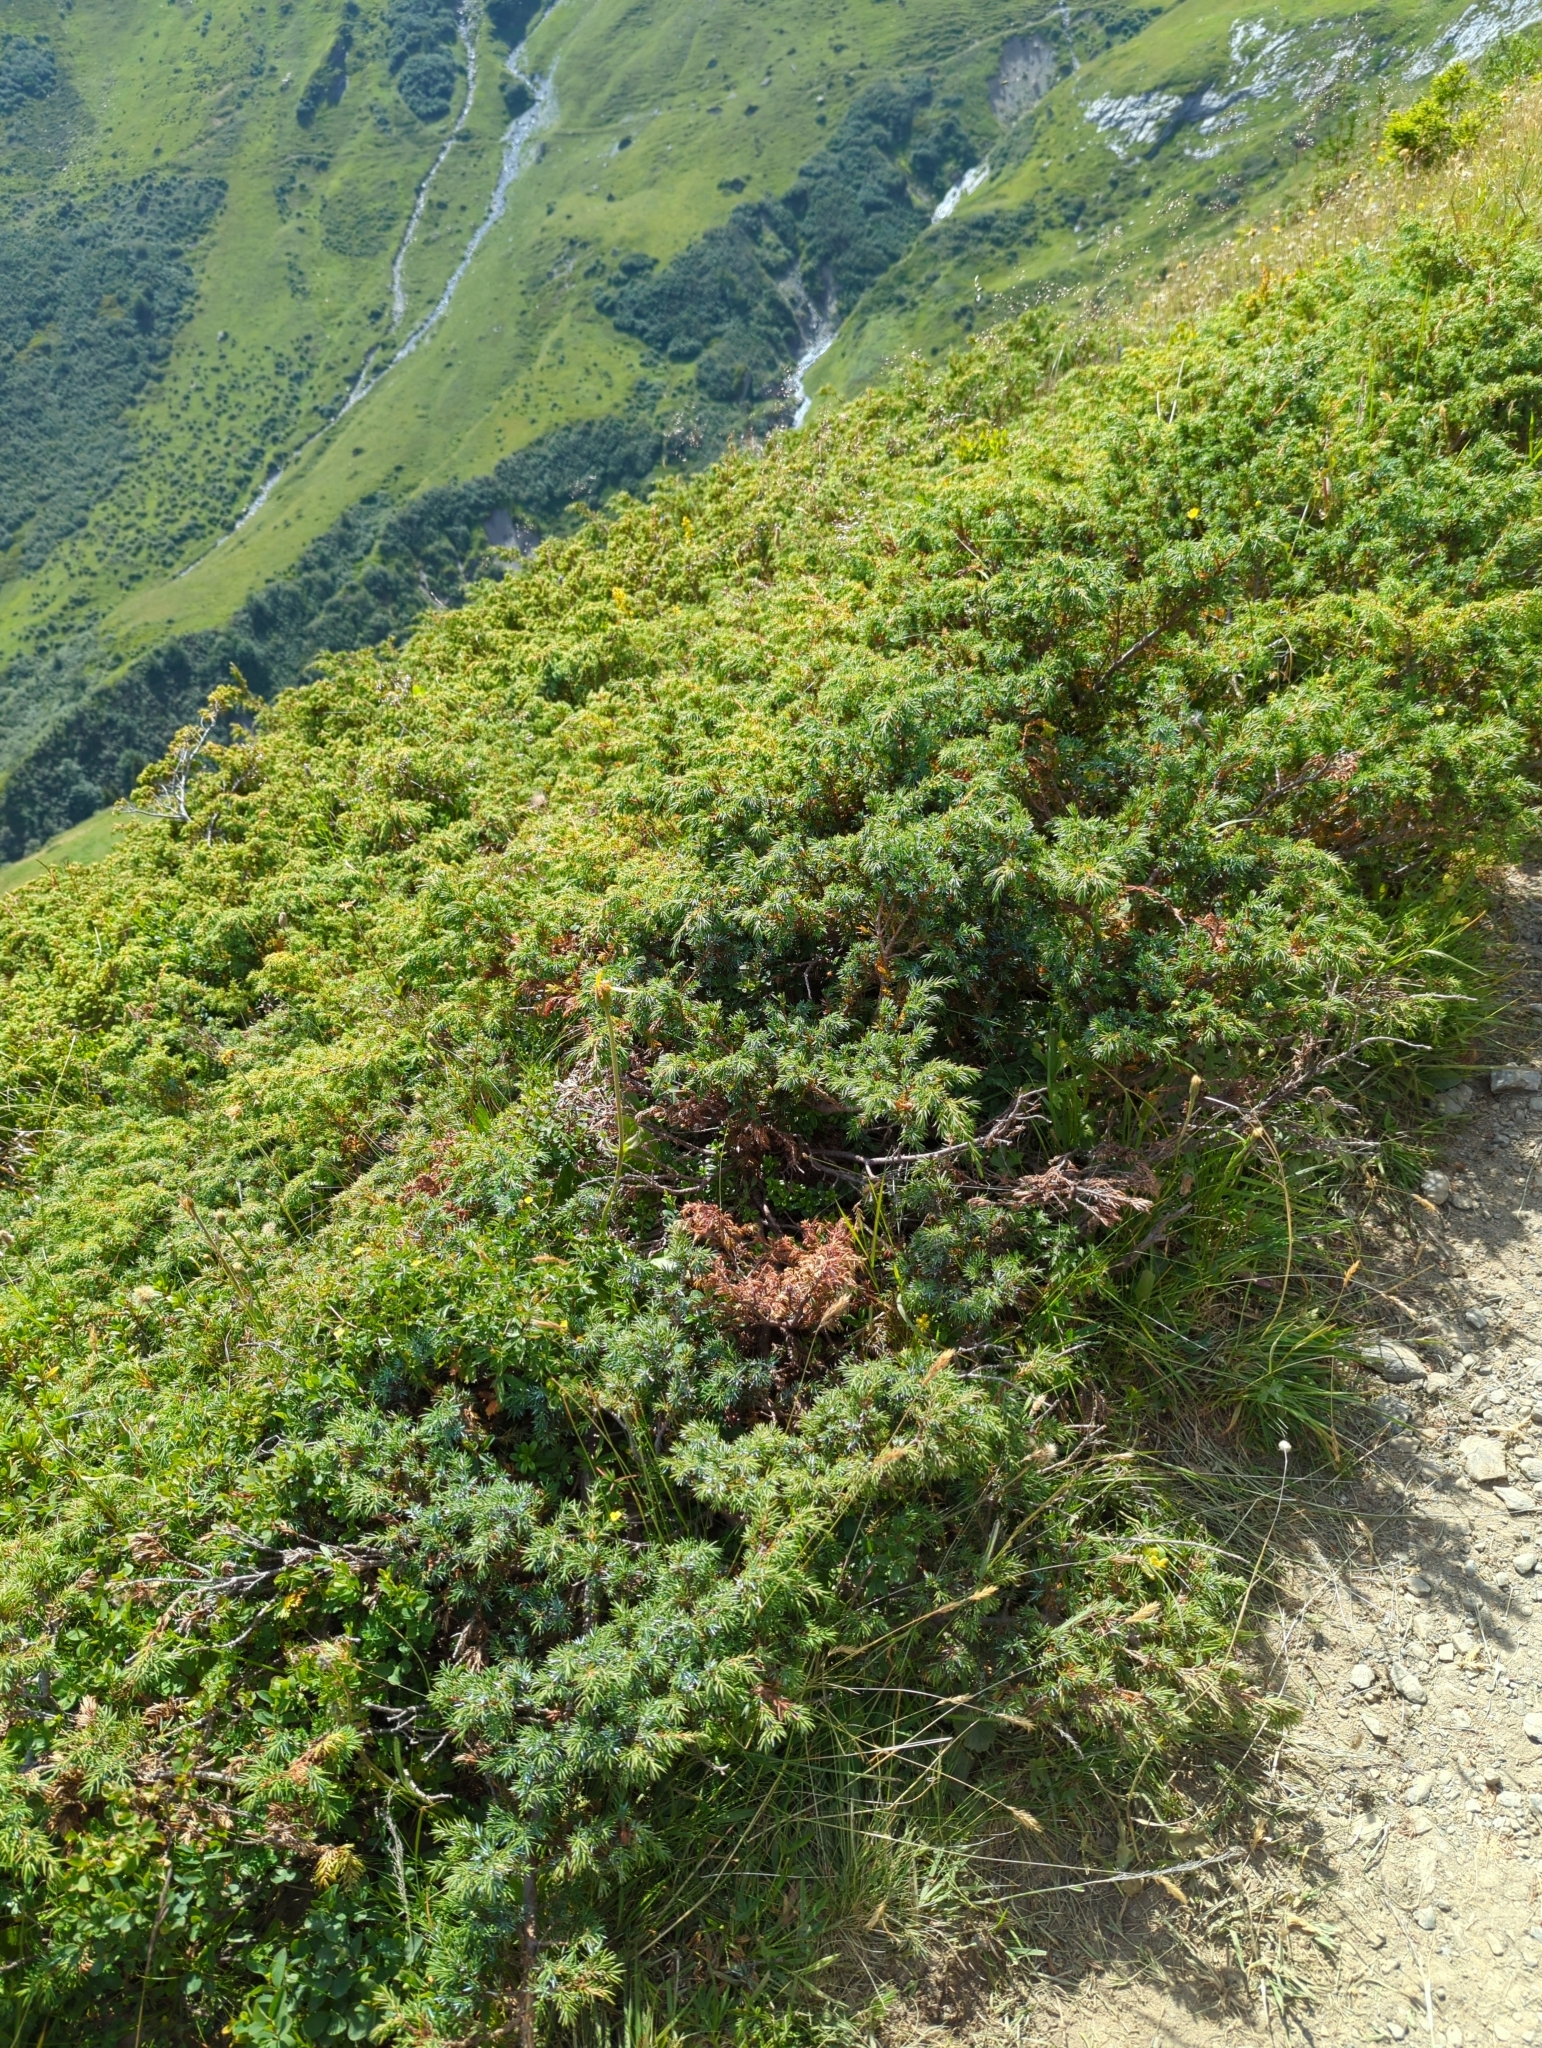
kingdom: Plantae
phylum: Tracheophyta
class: Pinopsida
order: Pinales
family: Cupressaceae
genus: Juniperus
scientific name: Juniperus communis
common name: Common juniper
